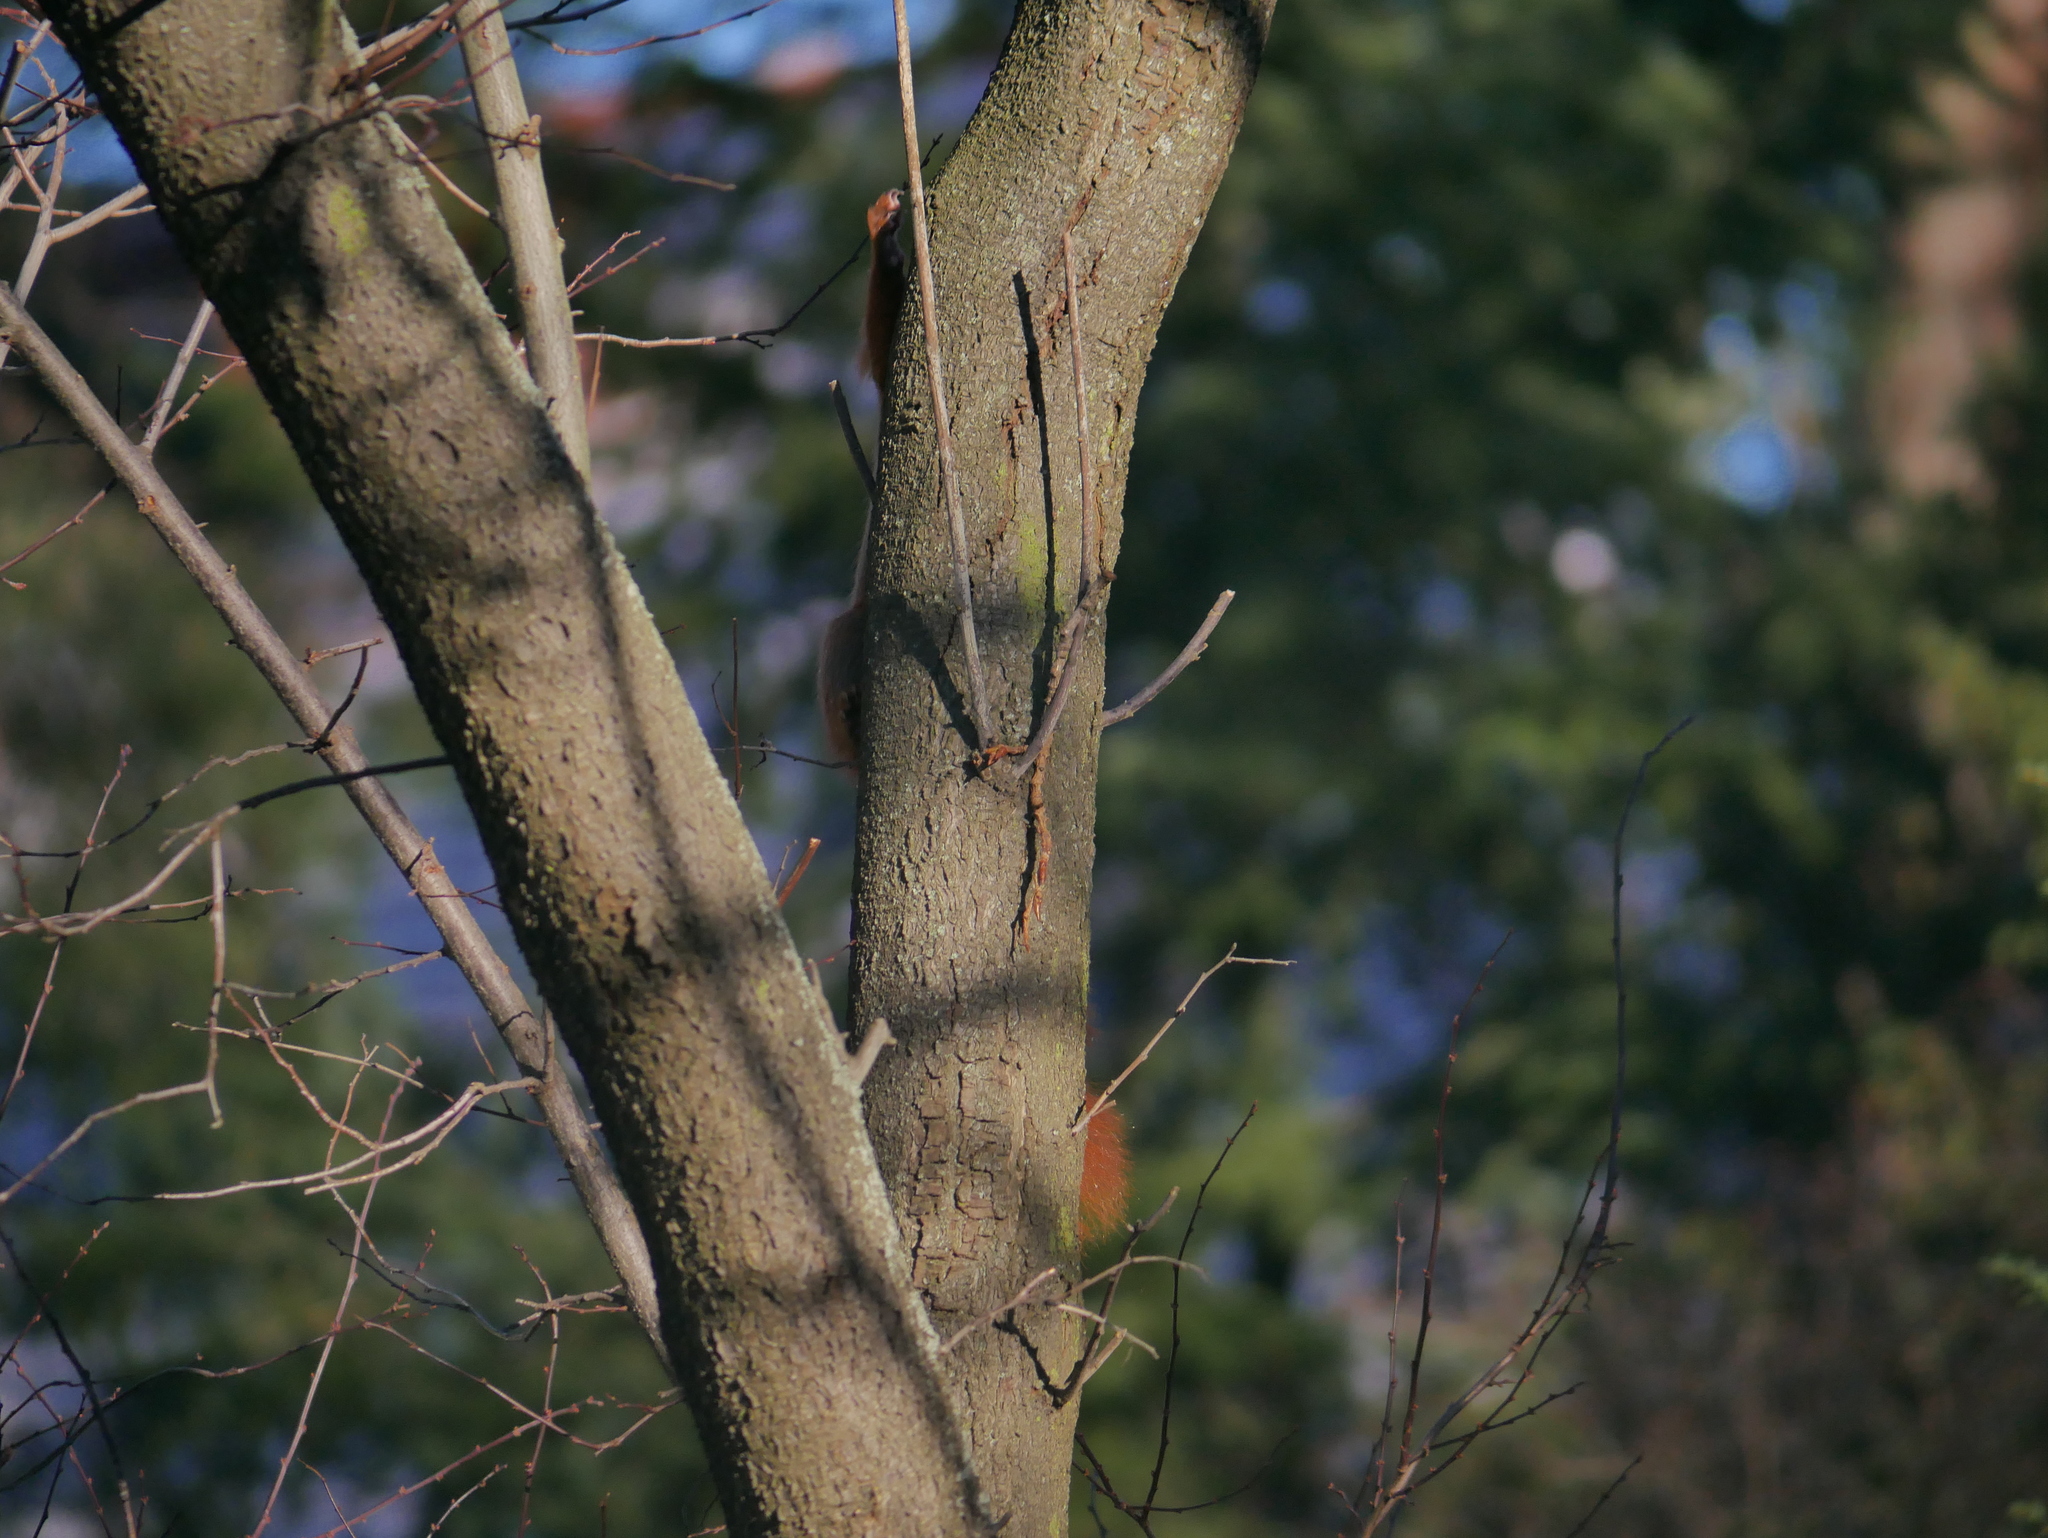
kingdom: Animalia
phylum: Chordata
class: Mammalia
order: Rodentia
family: Sciuridae
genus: Sciurus
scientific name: Sciurus vulgaris
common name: Eurasian red squirrel
